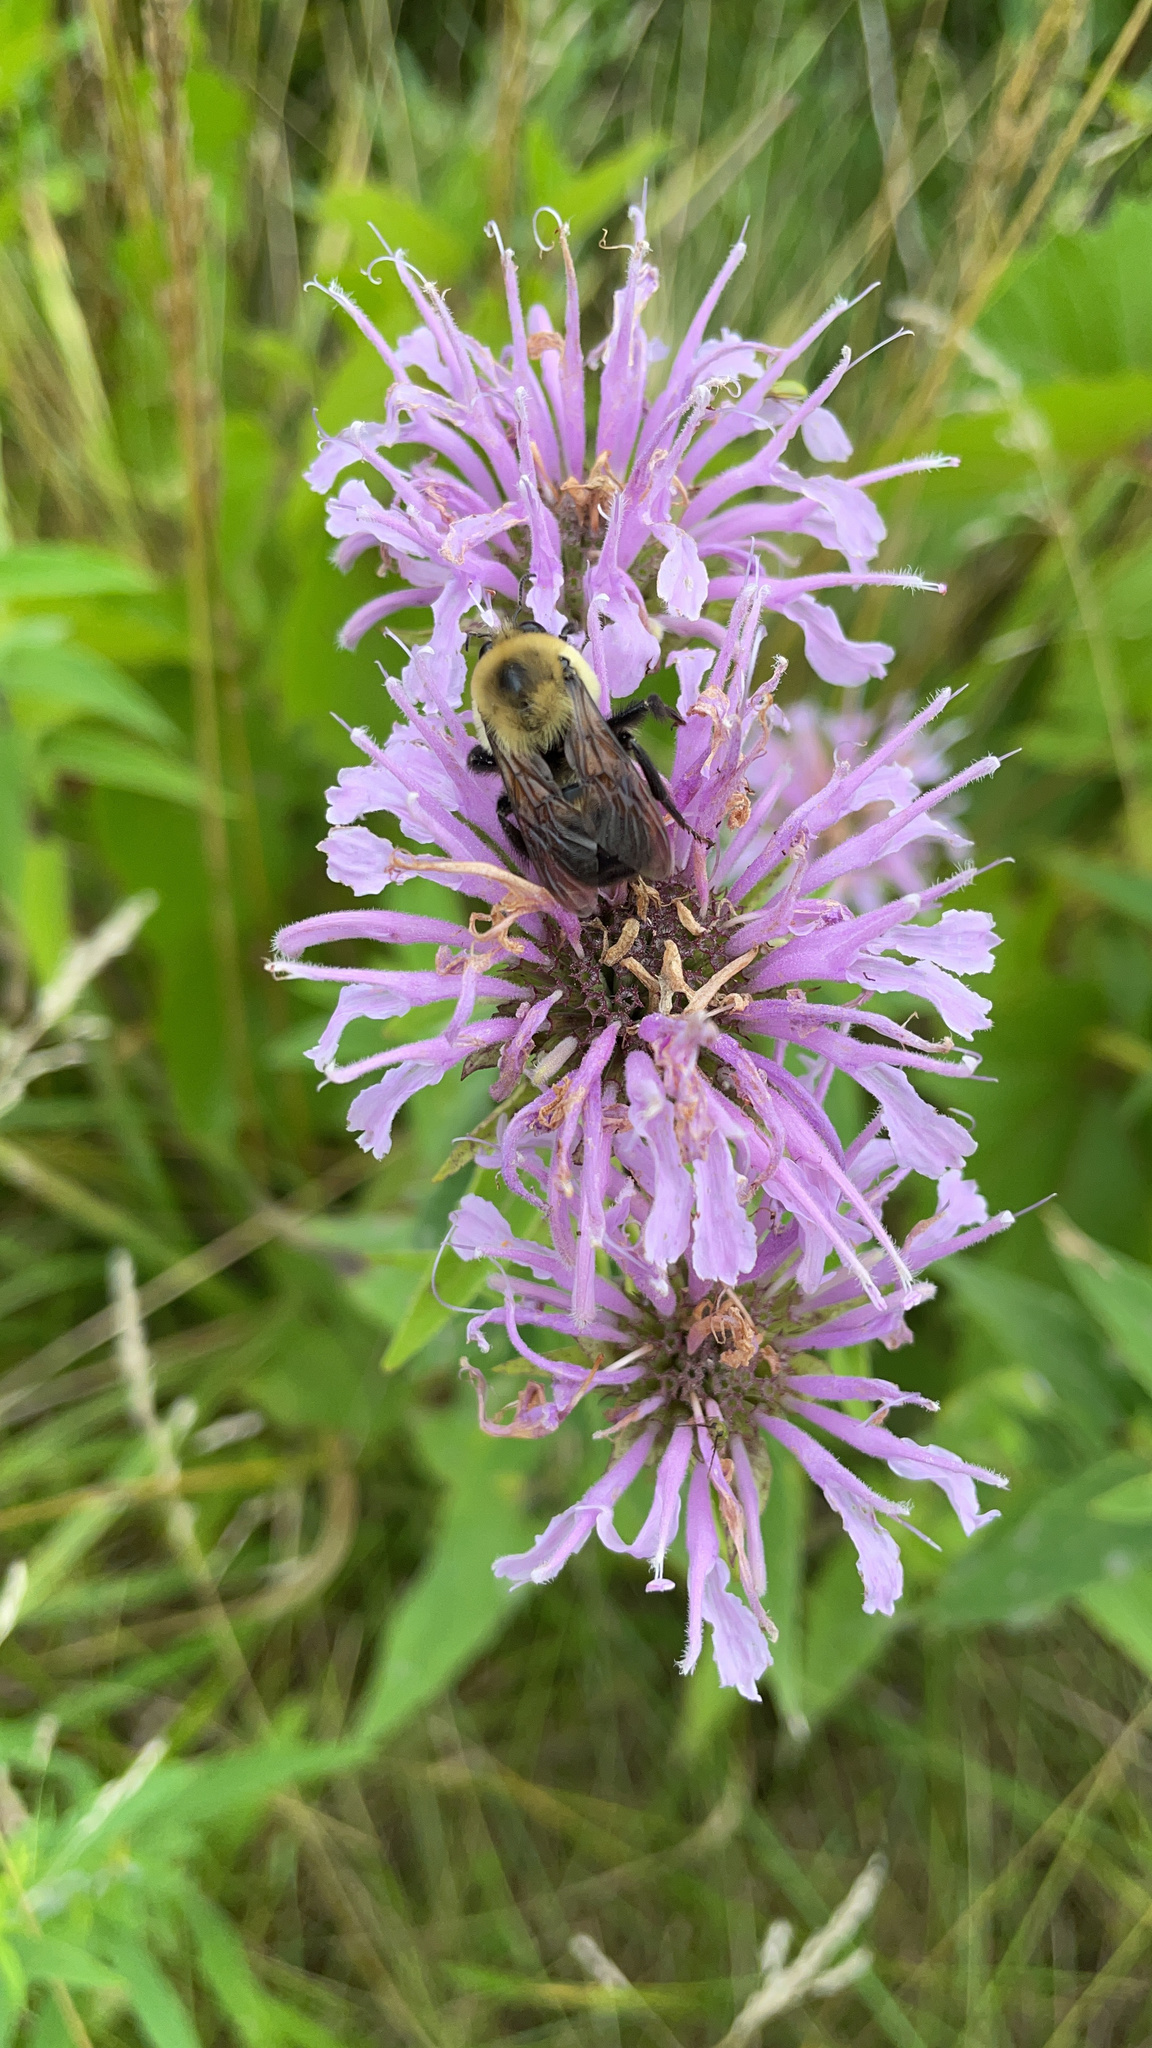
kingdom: Animalia
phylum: Arthropoda
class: Insecta
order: Hymenoptera
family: Apidae
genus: Bombus
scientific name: Bombus griseocollis
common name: Brown-belted bumble bee
